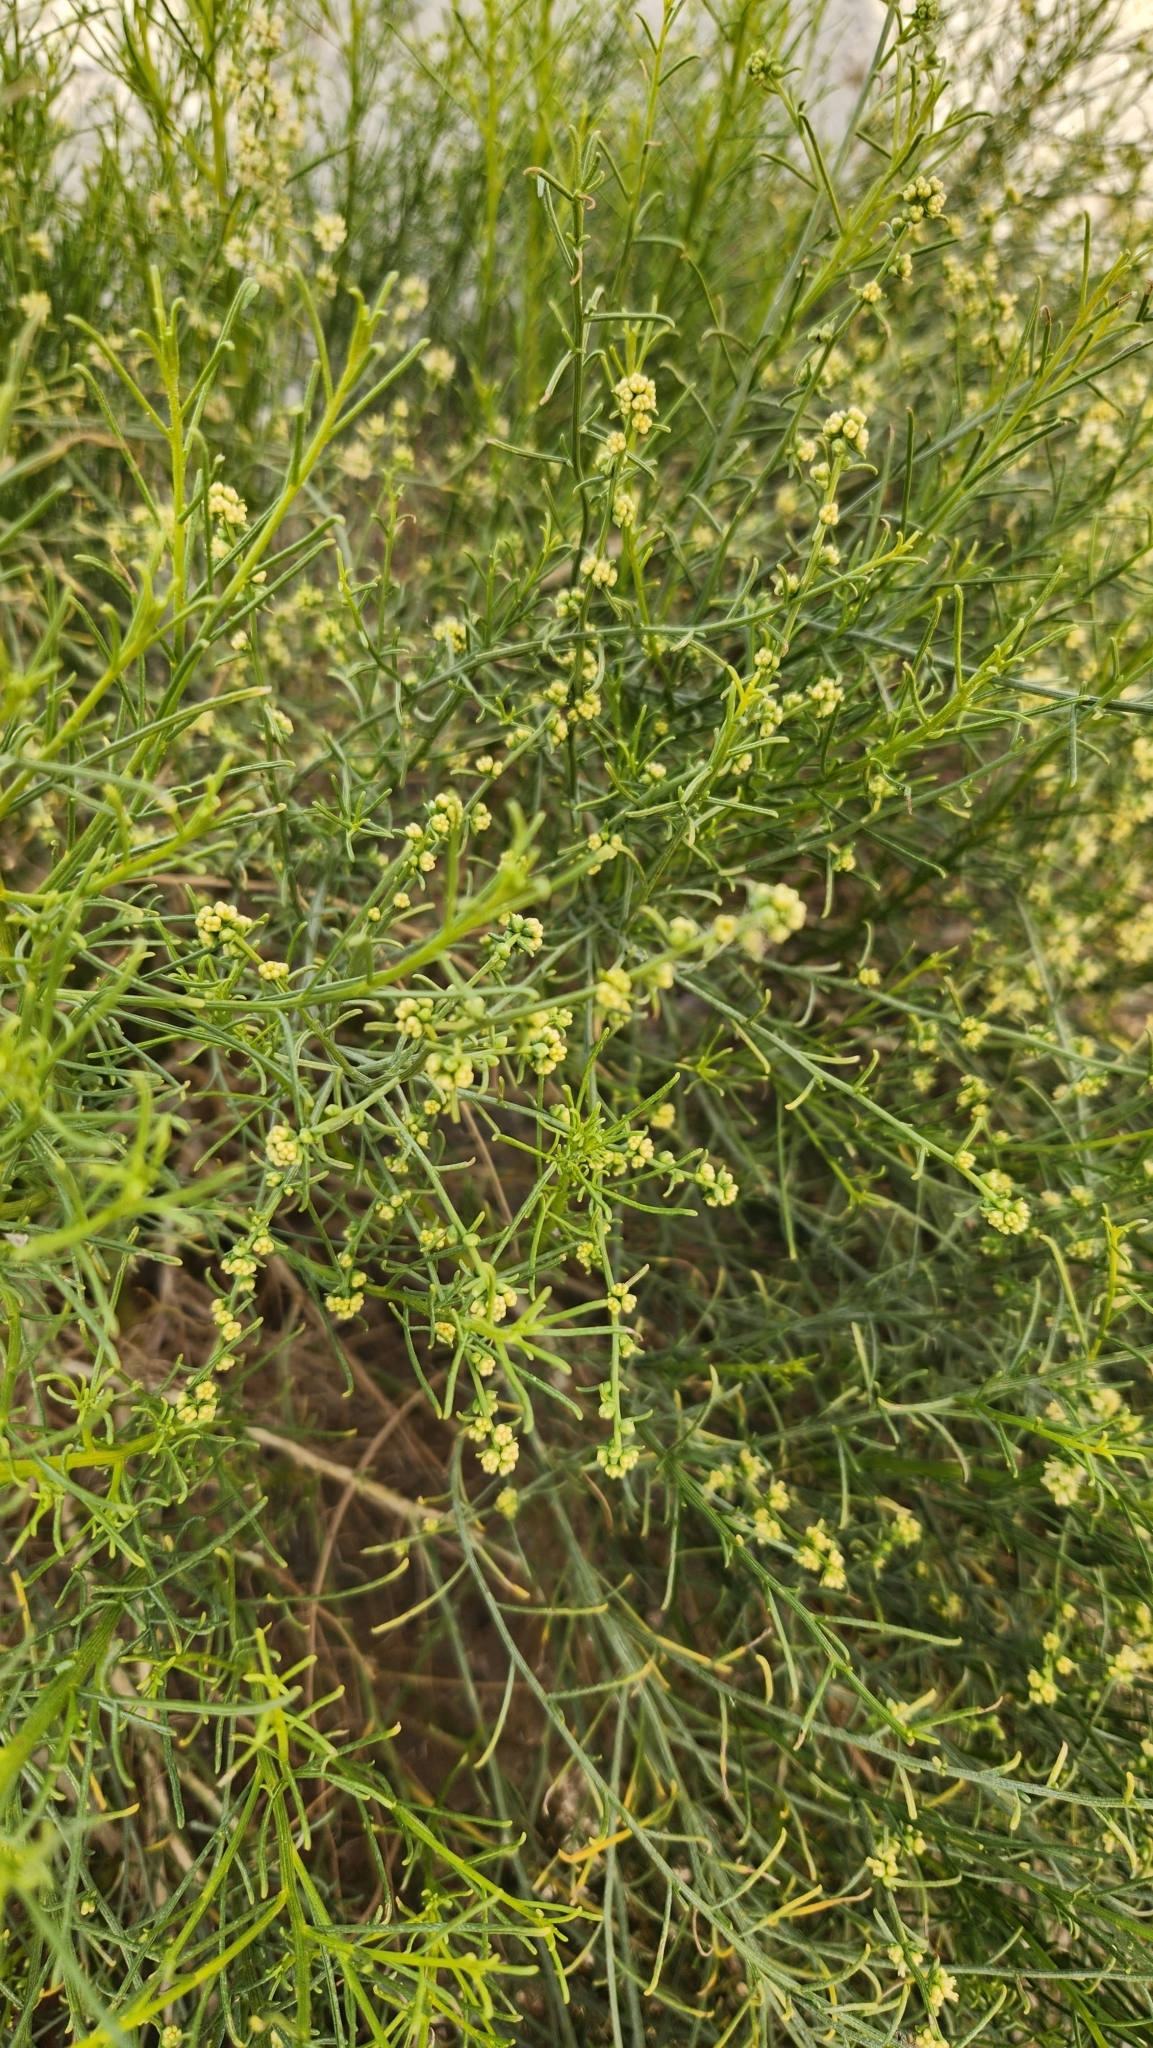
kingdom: Plantae
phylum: Tracheophyta
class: Magnoliopsida
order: Asterales
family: Asteraceae
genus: Ambrosia
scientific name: Ambrosia salsola
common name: Burrobrush
